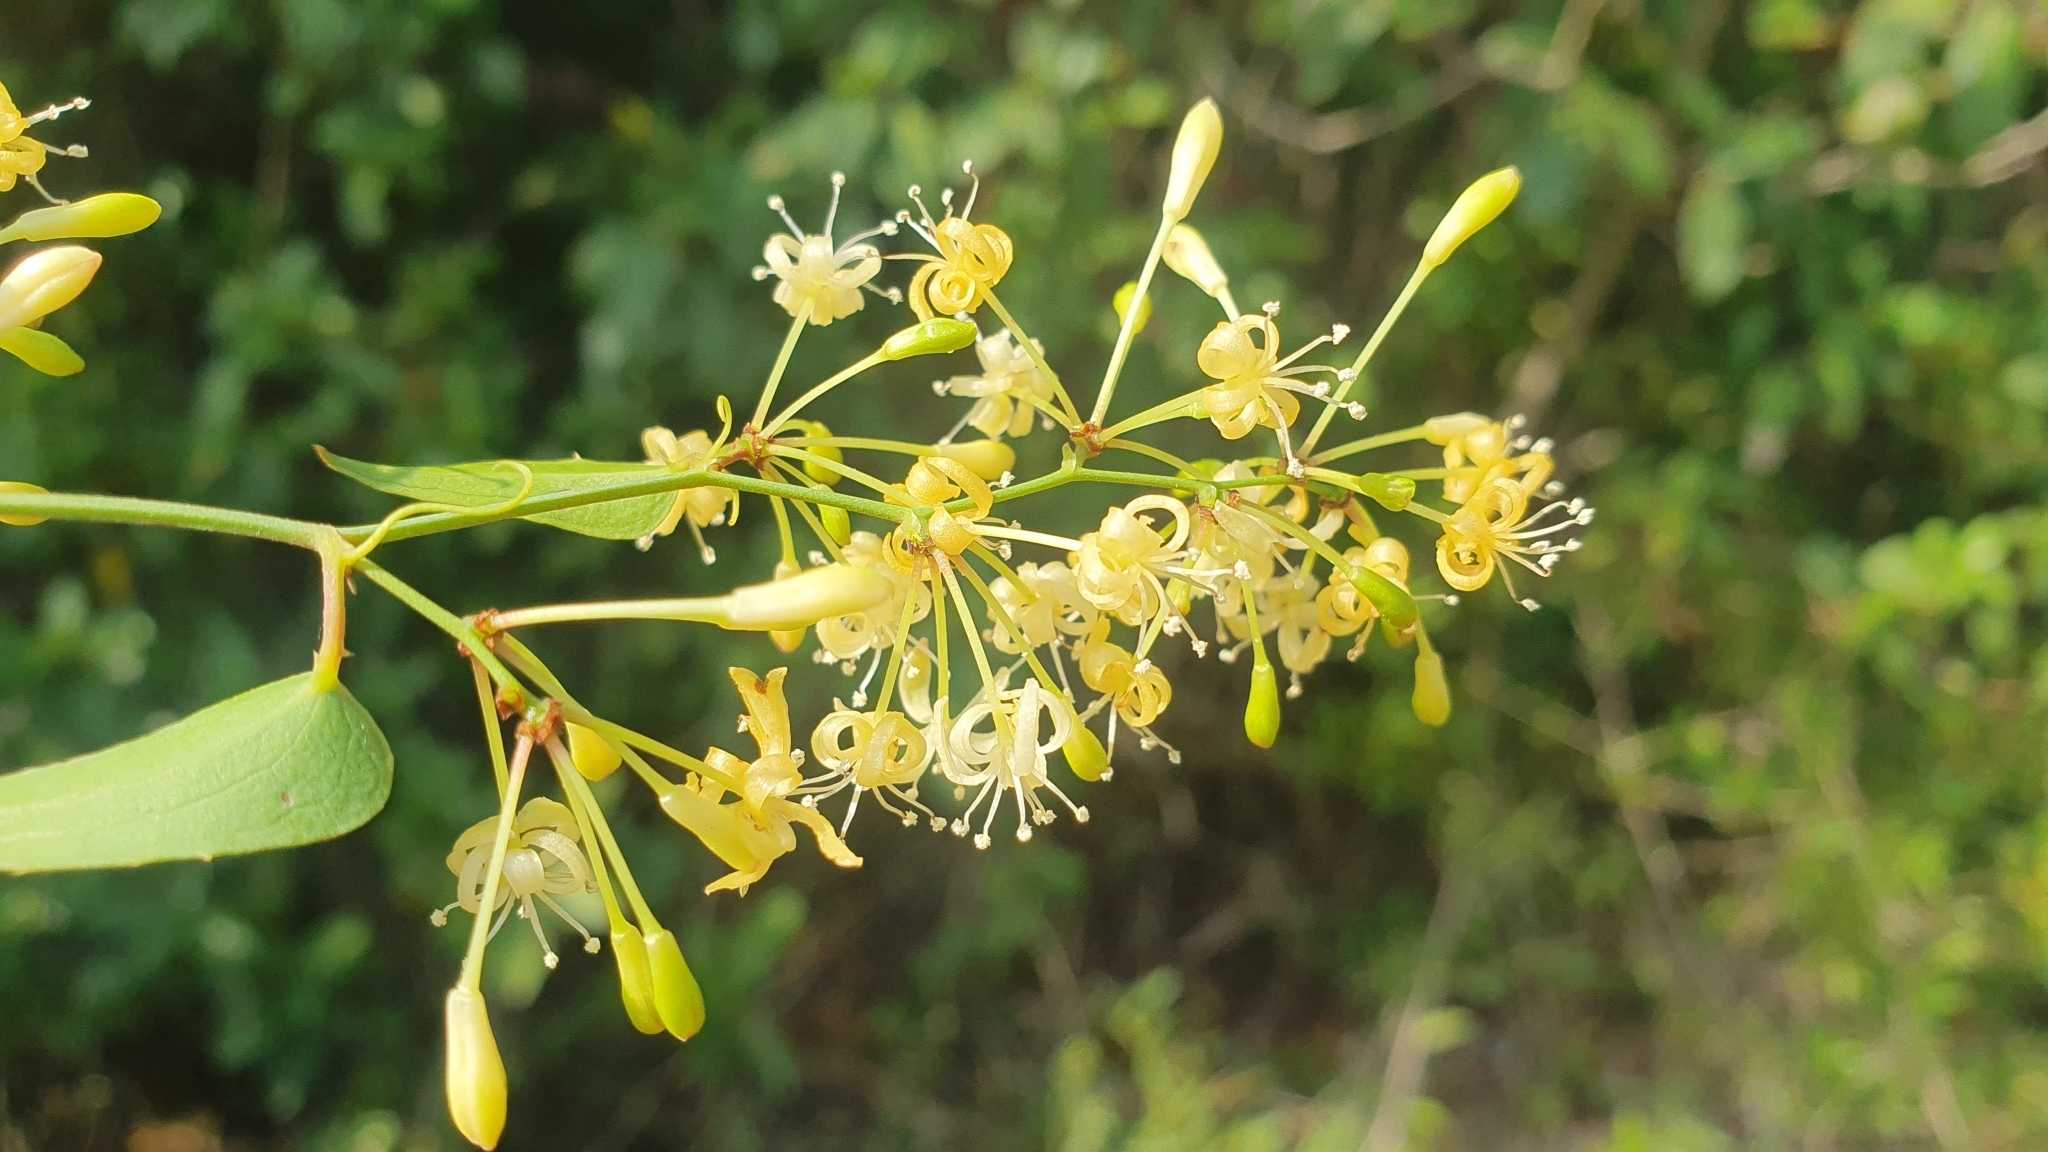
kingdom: Plantae
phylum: Tracheophyta
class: Liliopsida
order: Liliales
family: Smilacaceae
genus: Smilax
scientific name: Smilax aspera
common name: Common smilax
